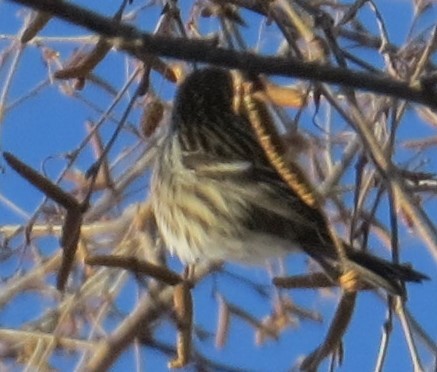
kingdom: Animalia
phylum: Chordata
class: Aves
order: Passeriformes
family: Fringillidae
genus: Acanthis
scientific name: Acanthis flammea
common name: Common redpoll
